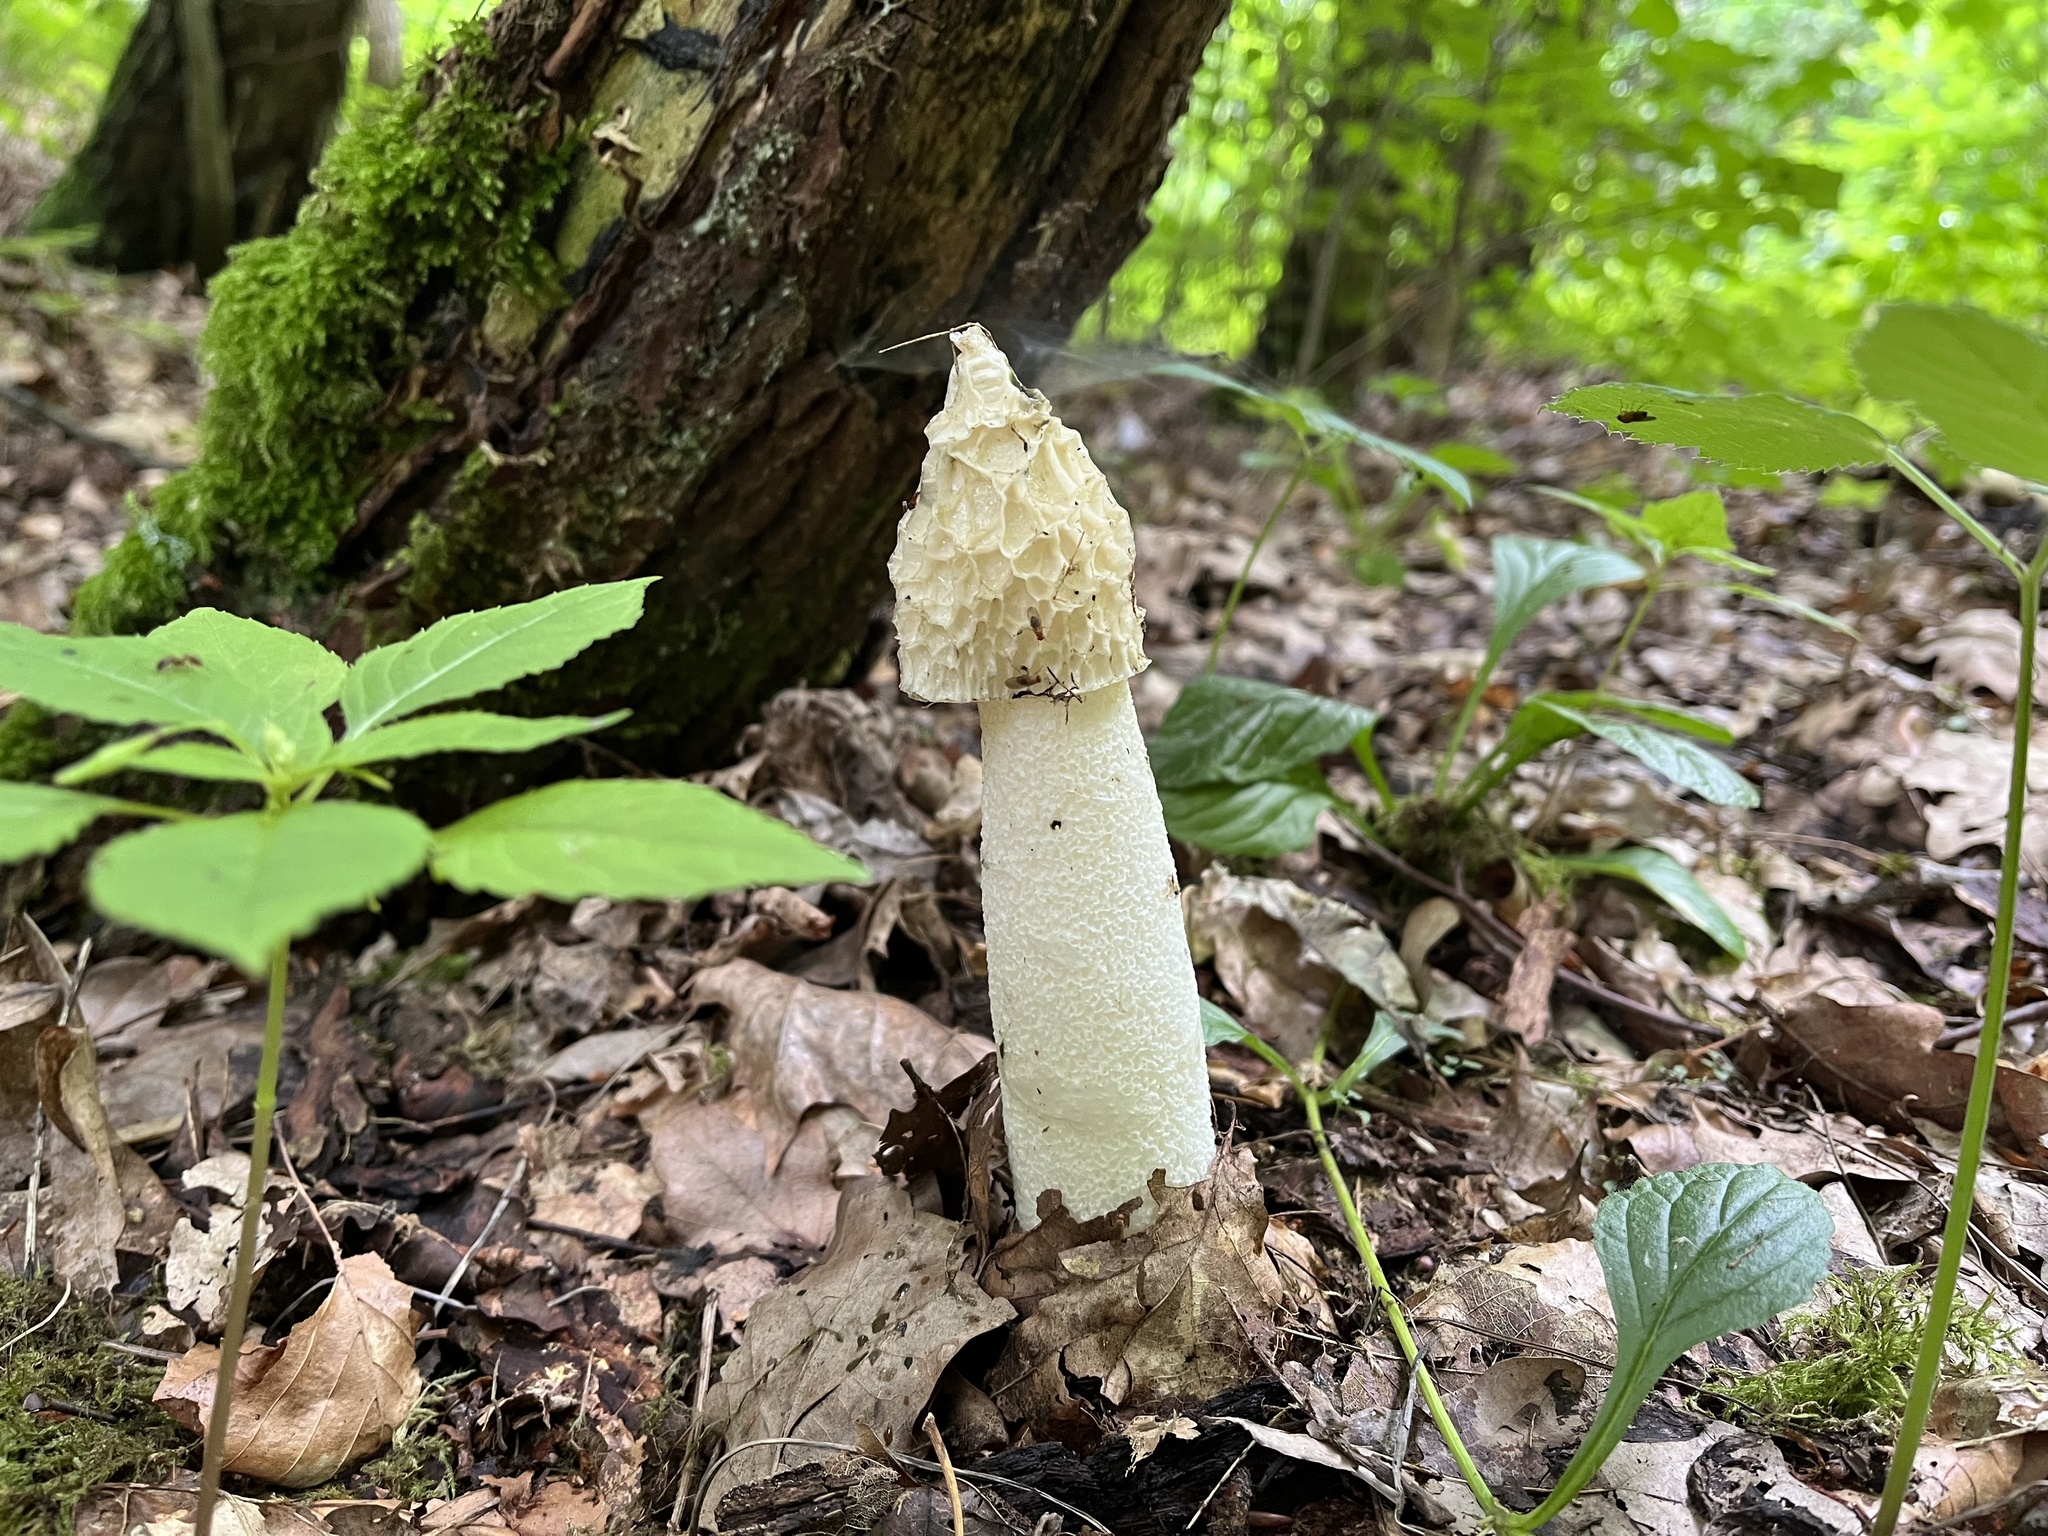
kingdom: Fungi
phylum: Basidiomycota
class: Agaricomycetes
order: Phallales
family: Phallaceae
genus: Phallus
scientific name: Phallus impudicus
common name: Common stinkhorn
